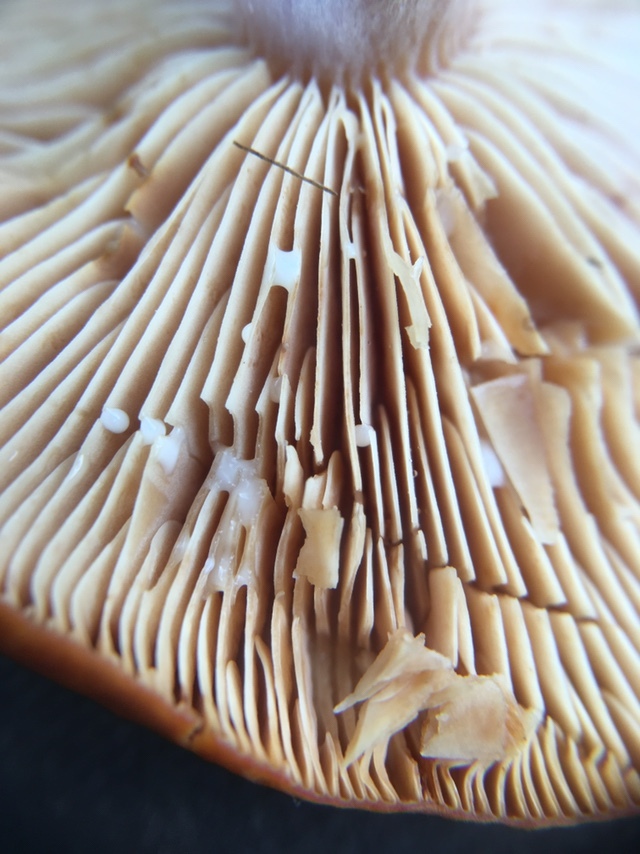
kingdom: Fungi
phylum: Basidiomycota
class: Agaricomycetes
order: Russulales
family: Russulaceae
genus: Lactarius
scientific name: Lactarius luculentus
